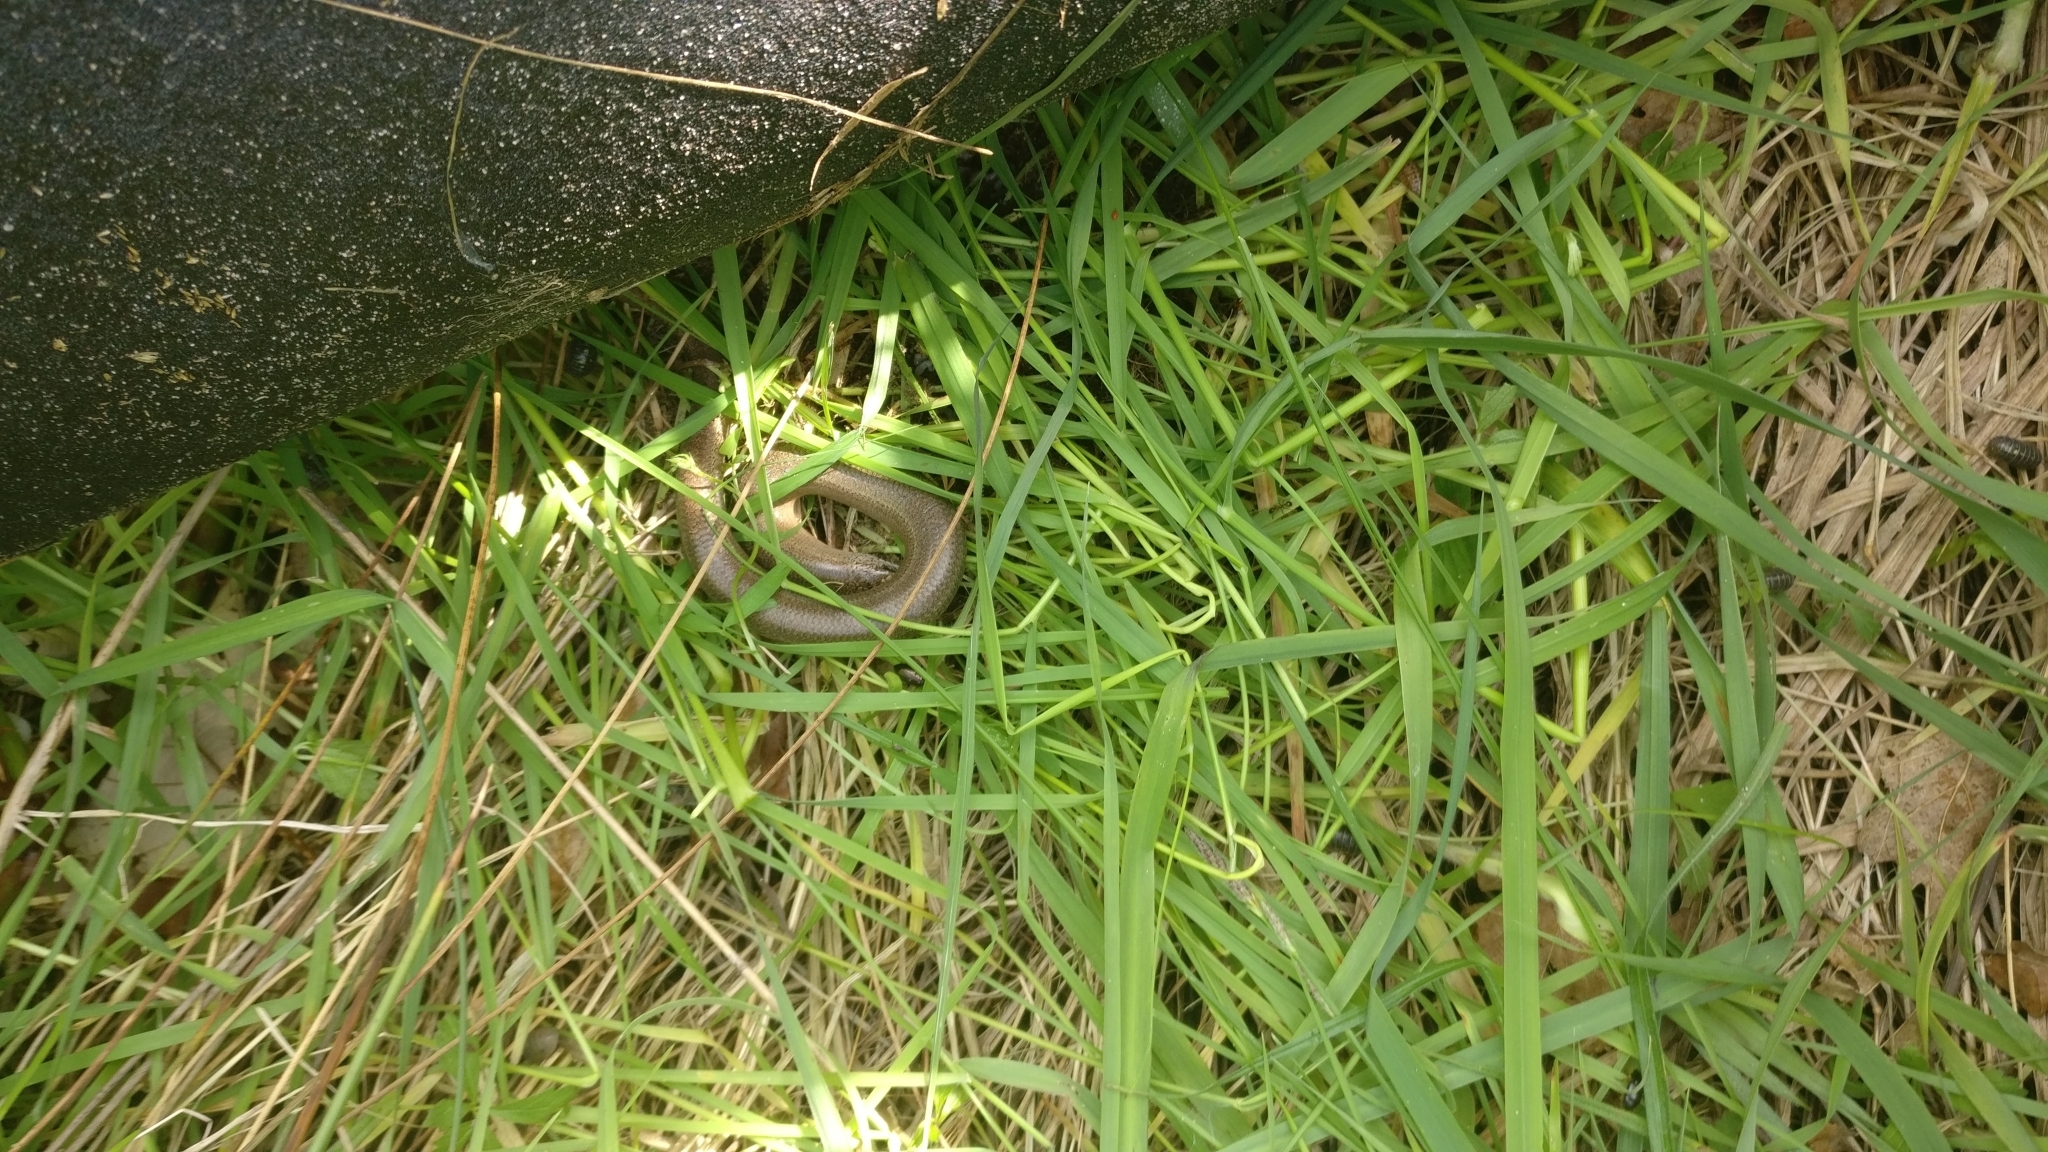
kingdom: Animalia
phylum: Chordata
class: Squamata
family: Anguidae
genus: Anguis
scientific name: Anguis fragilis
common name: Slow worm
